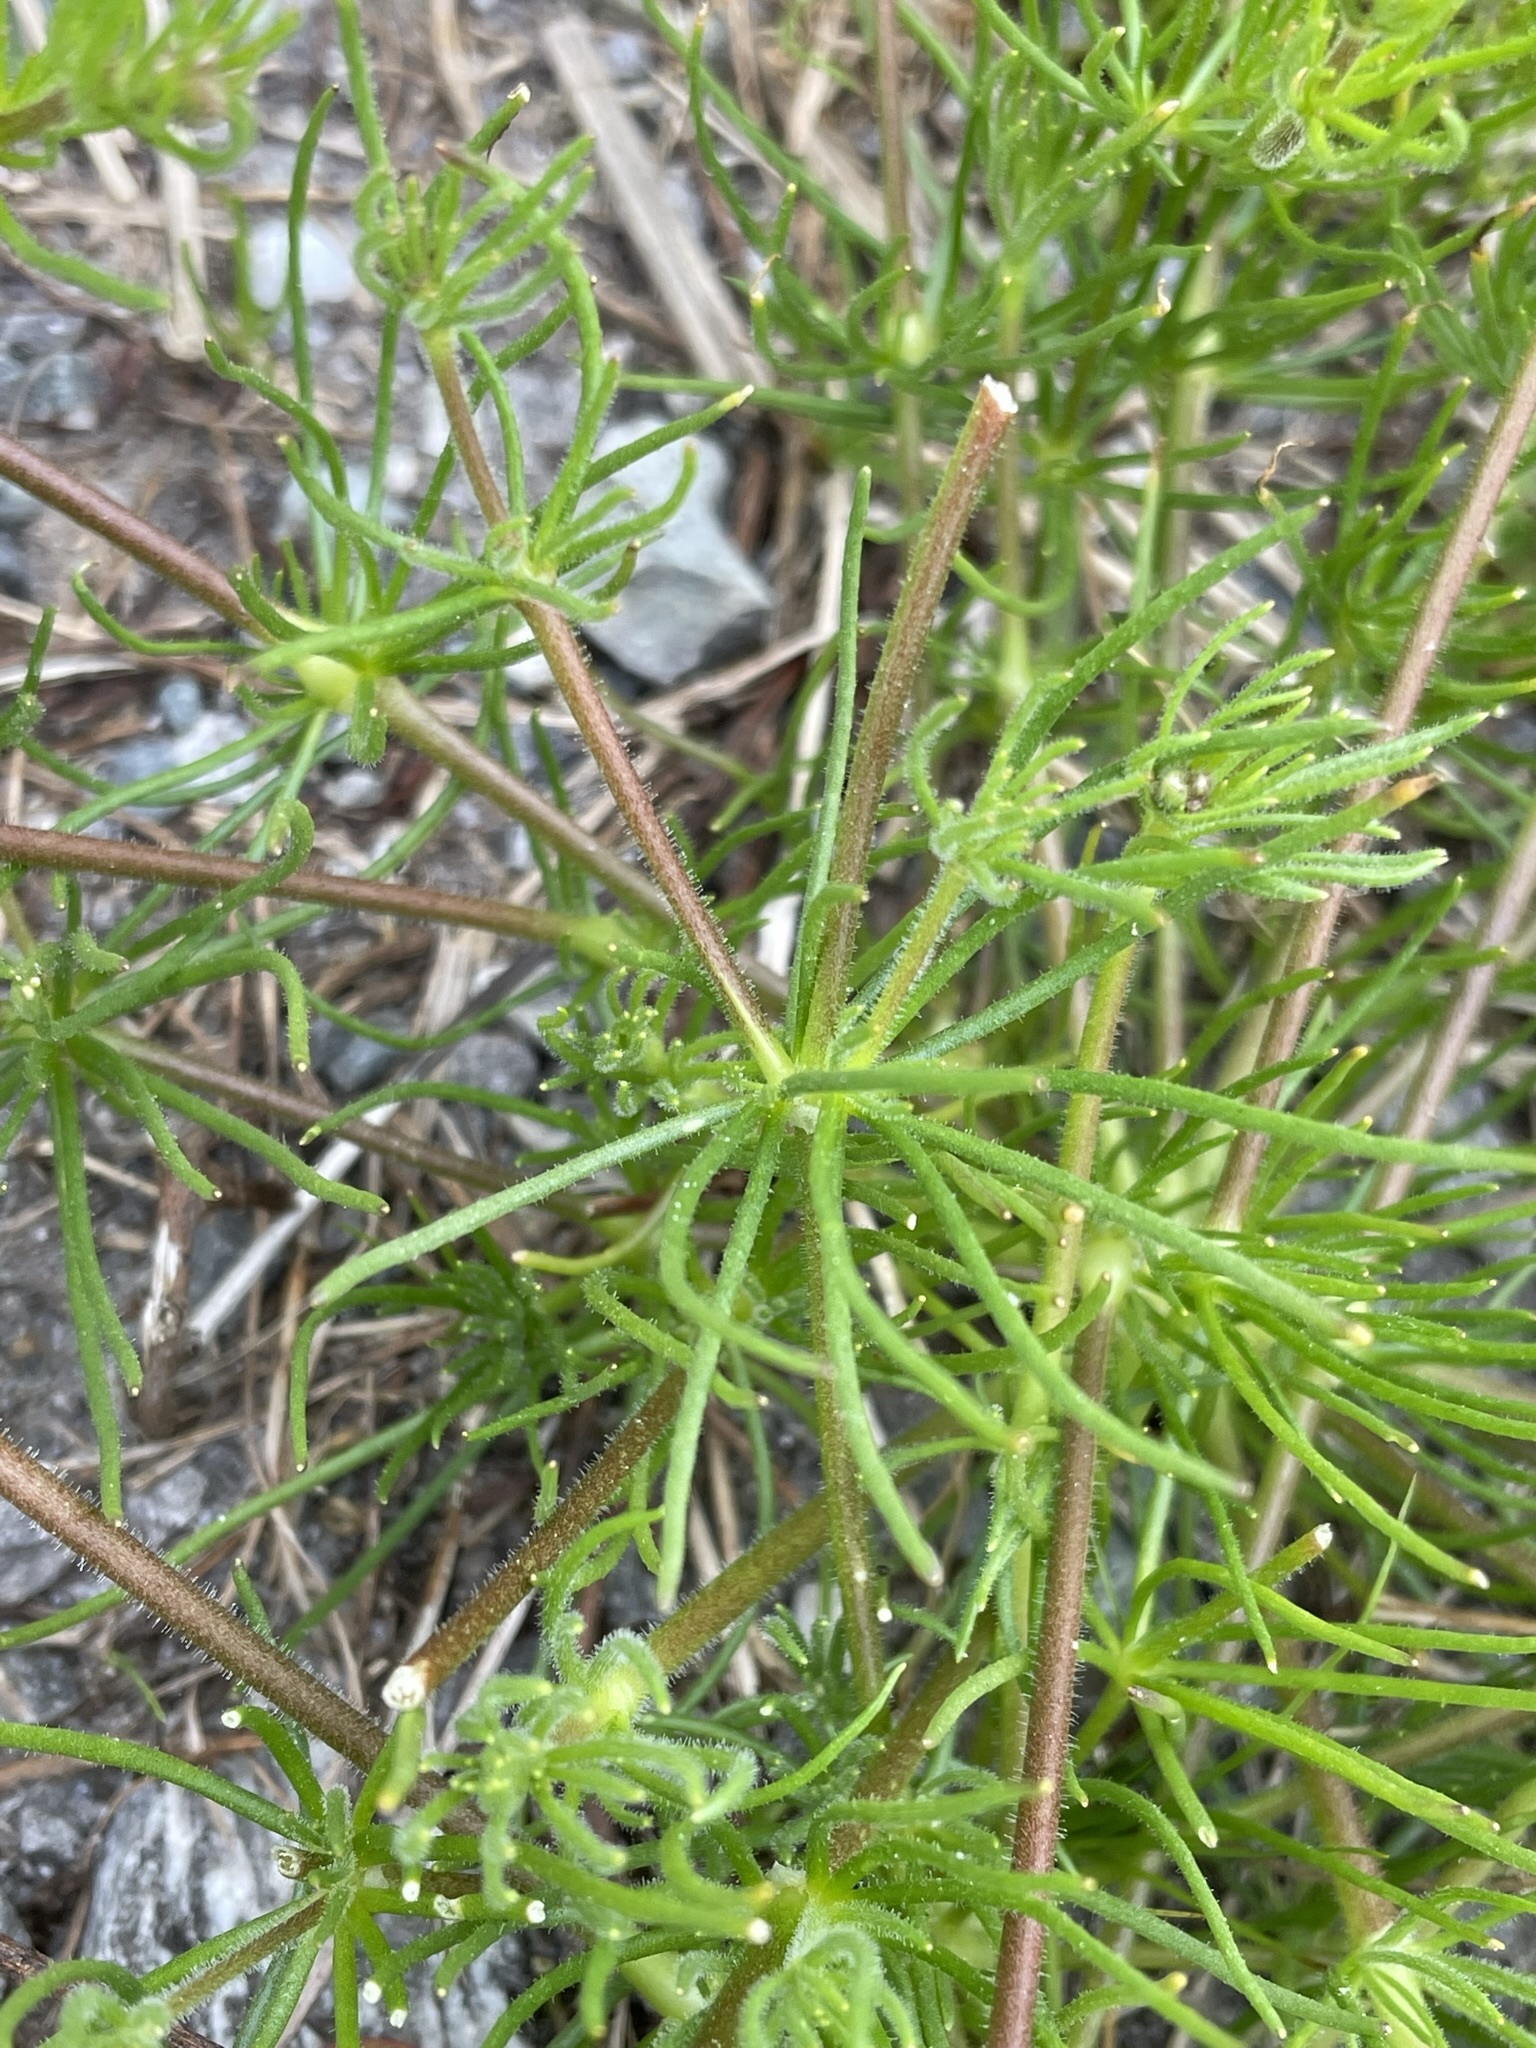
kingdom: Plantae
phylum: Tracheophyta
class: Magnoliopsida
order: Caryophyllales
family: Caryophyllaceae
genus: Spergula
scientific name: Spergula arvensis
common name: Corn spurrey
